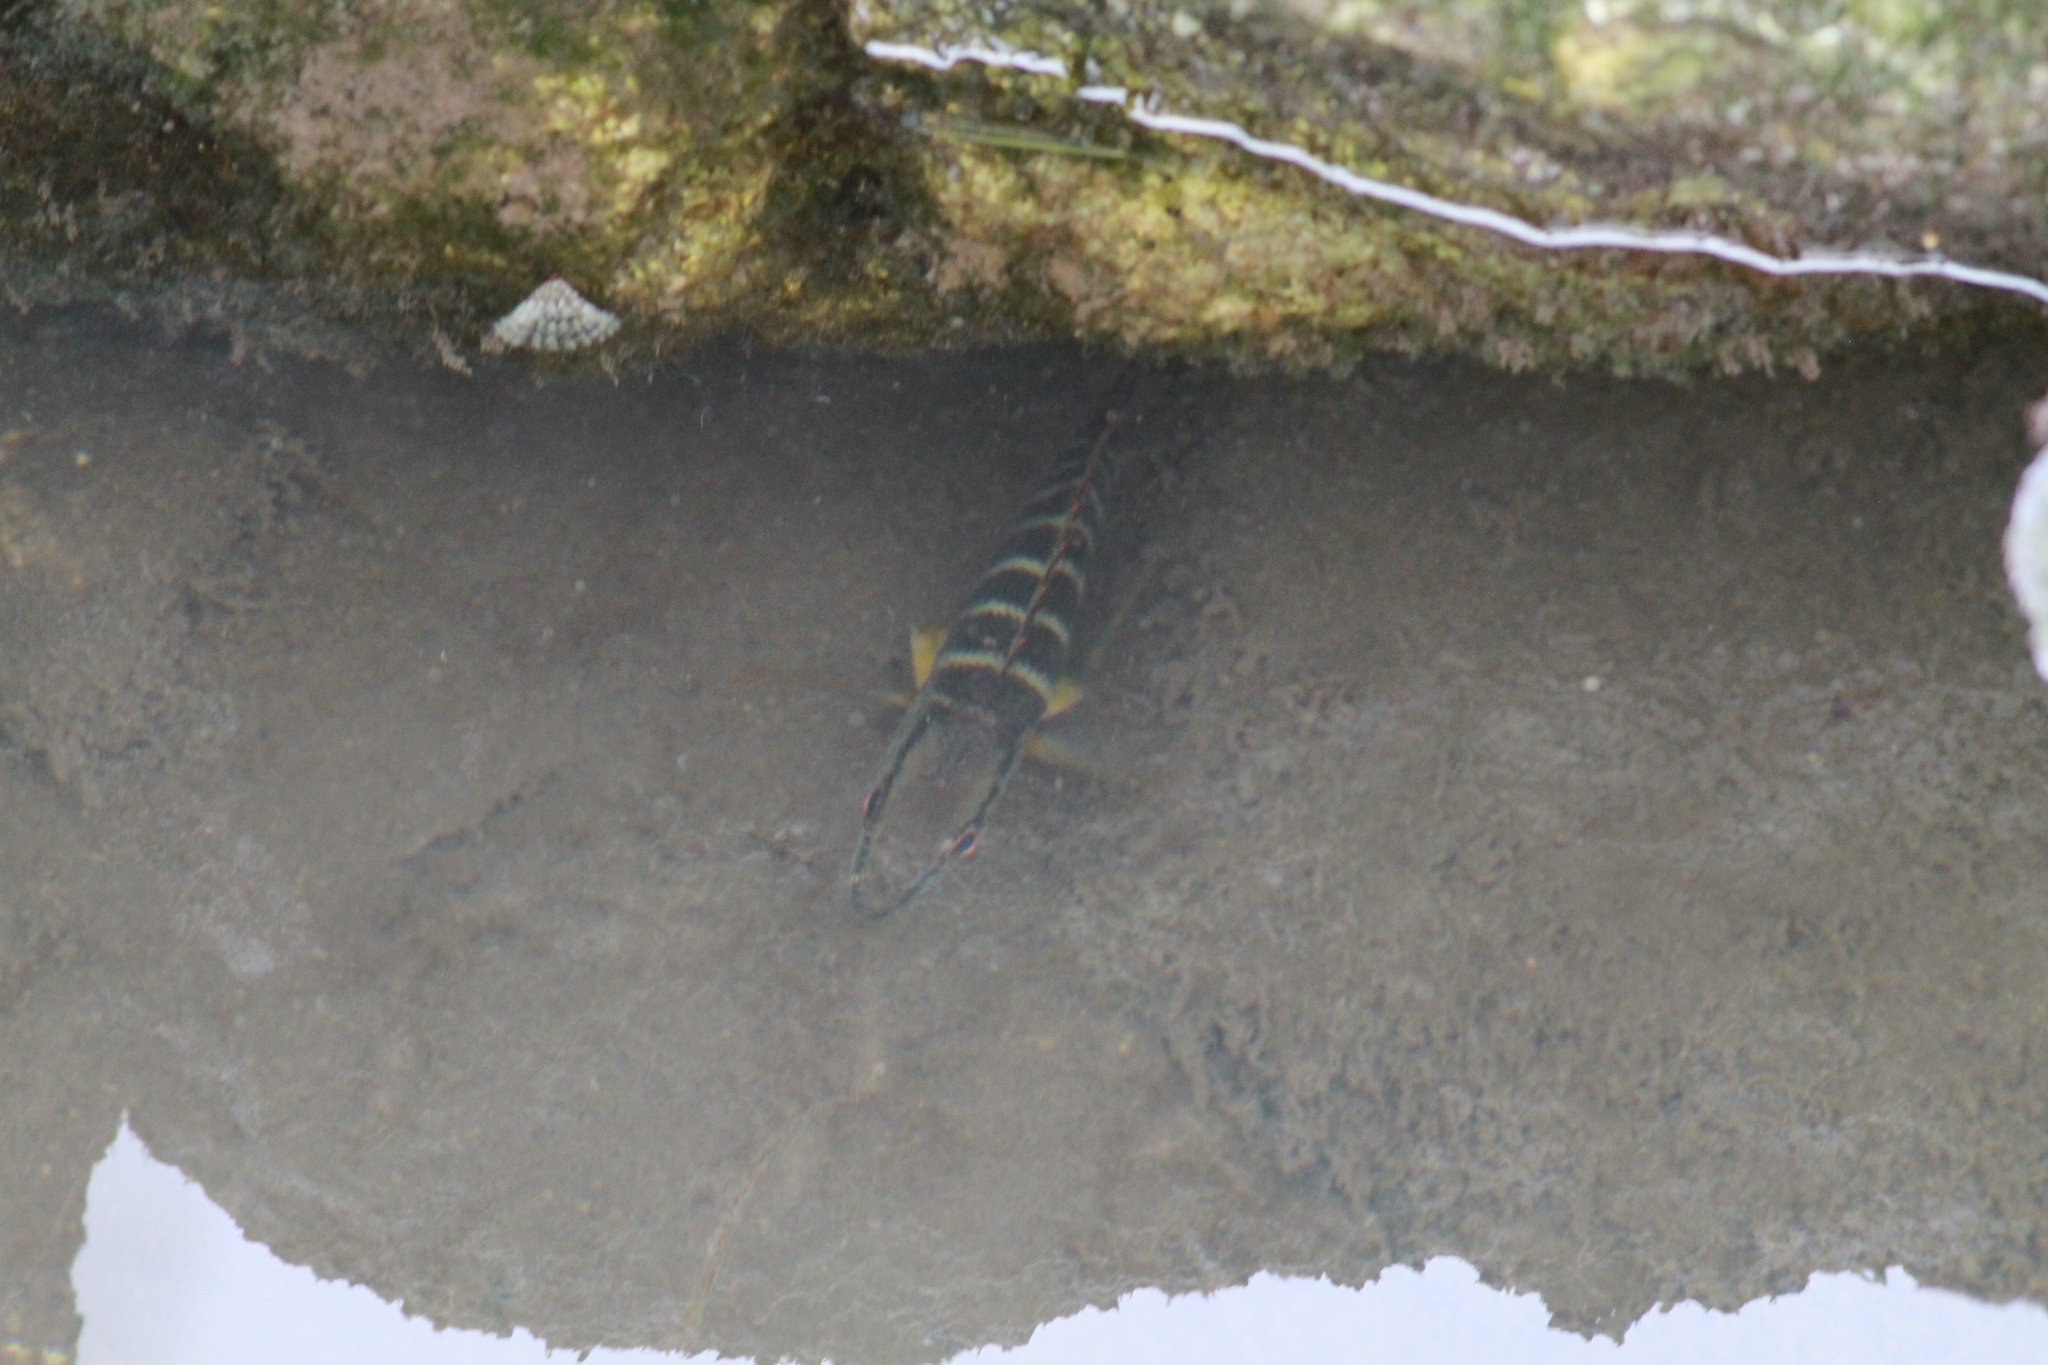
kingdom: Animalia
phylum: Chordata
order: Perciformes
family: Lutjanidae
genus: Lutjanus
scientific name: Lutjanus apodus
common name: Schoolmaster
